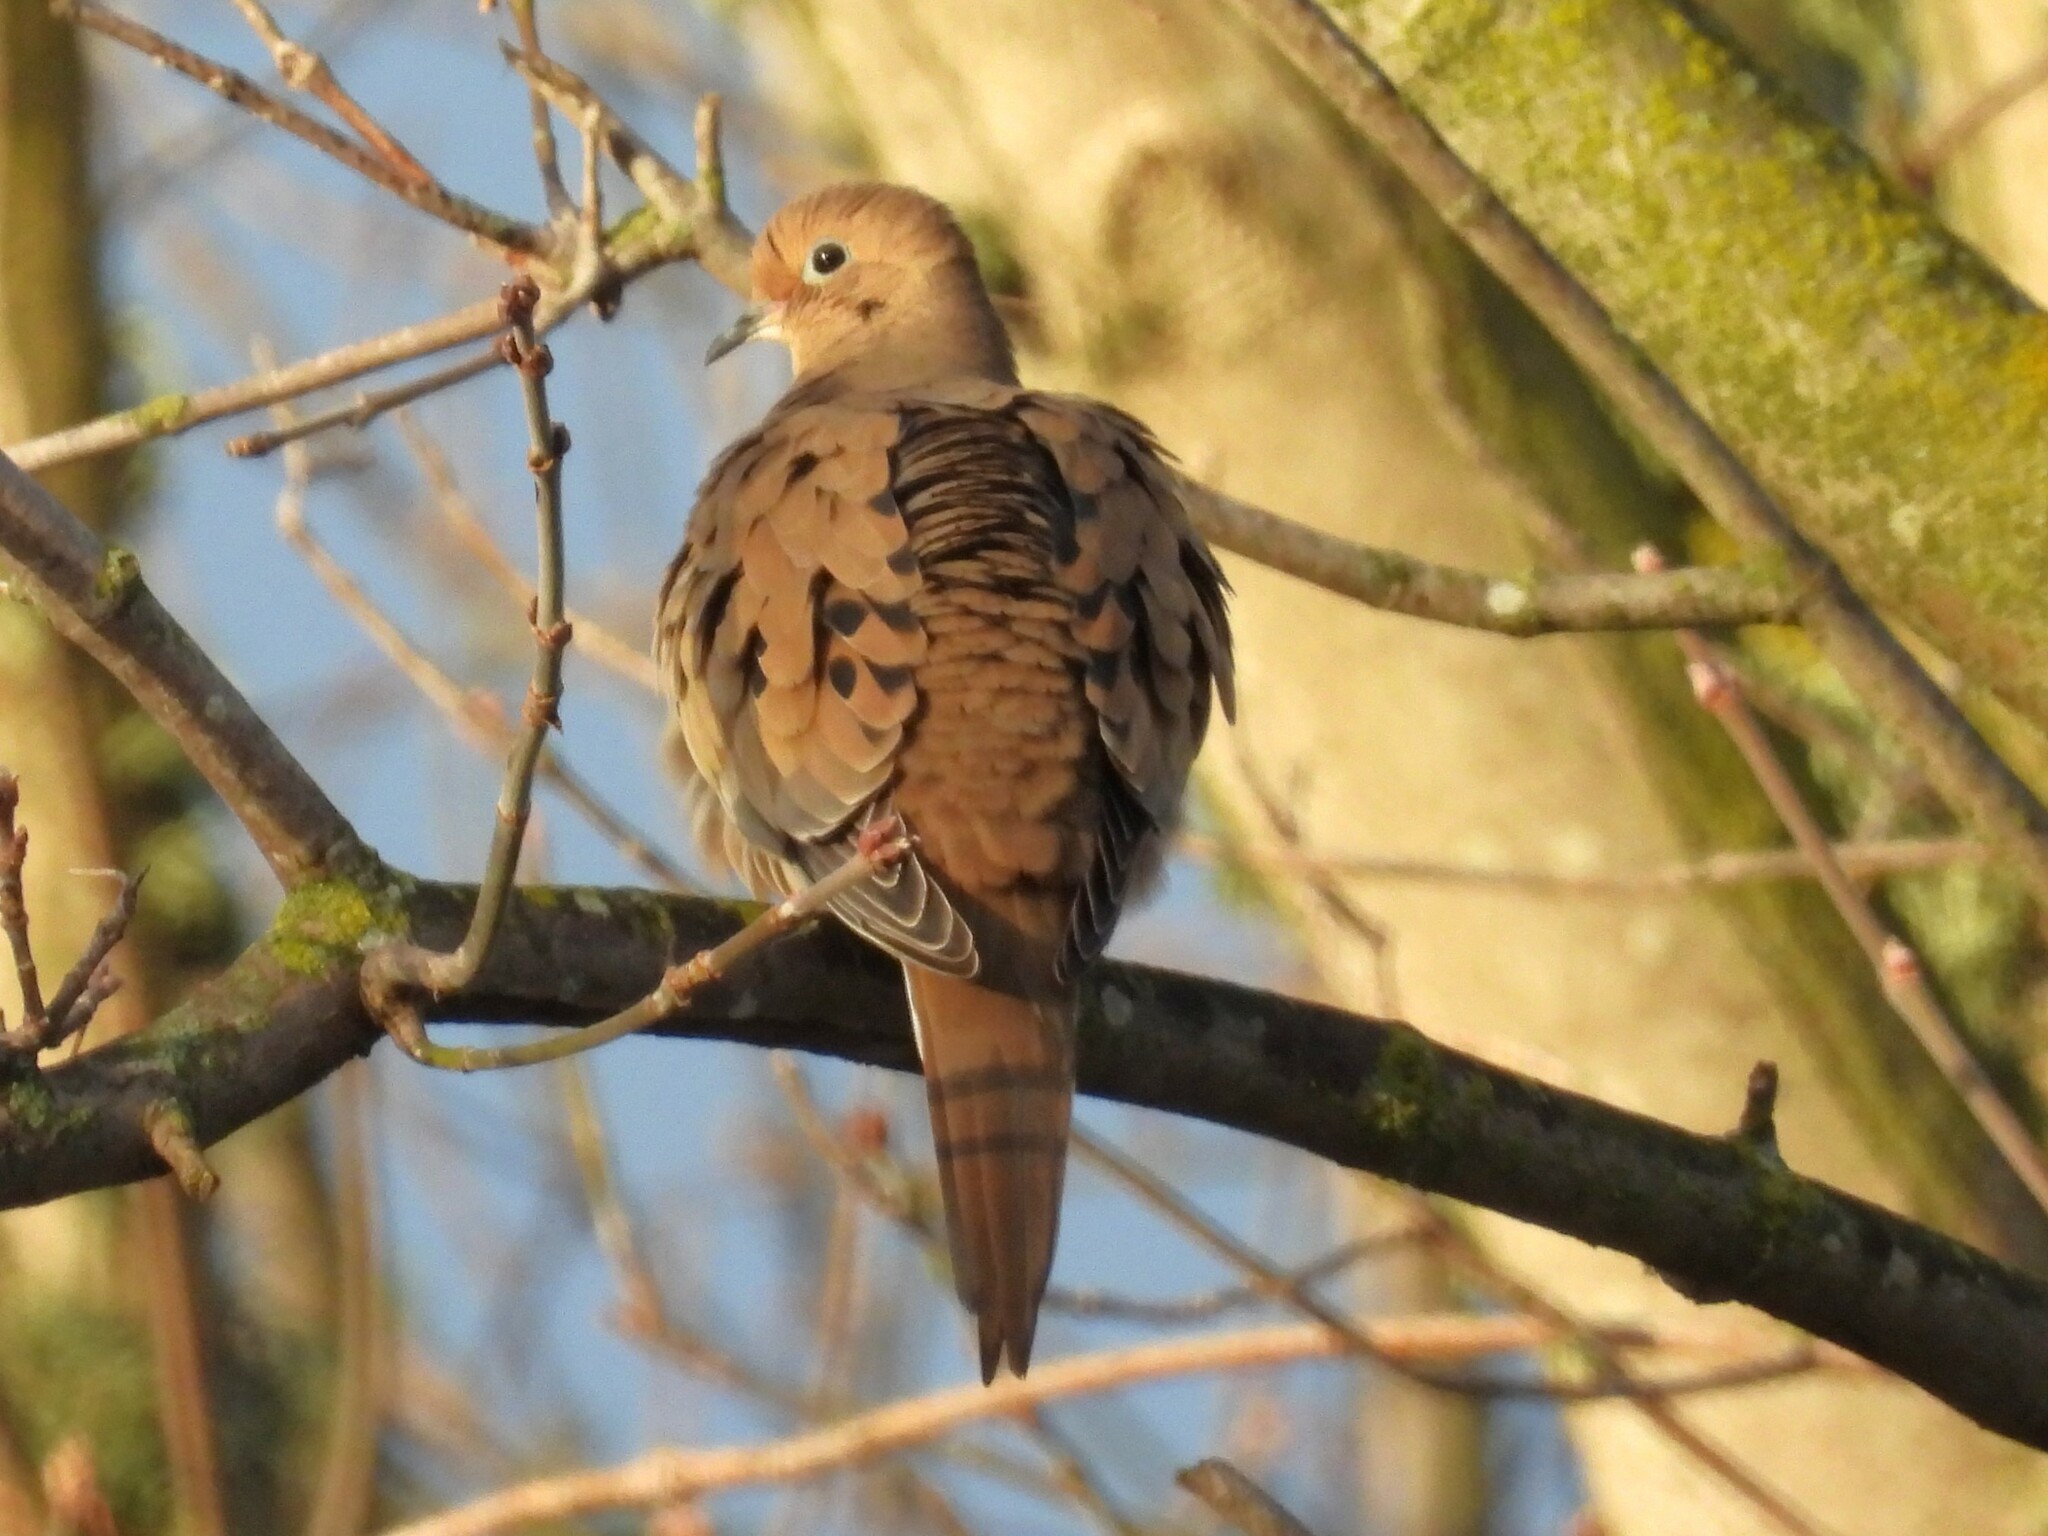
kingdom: Animalia
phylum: Chordata
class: Aves
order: Columbiformes
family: Columbidae
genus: Zenaida
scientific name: Zenaida macroura
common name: Mourning dove
